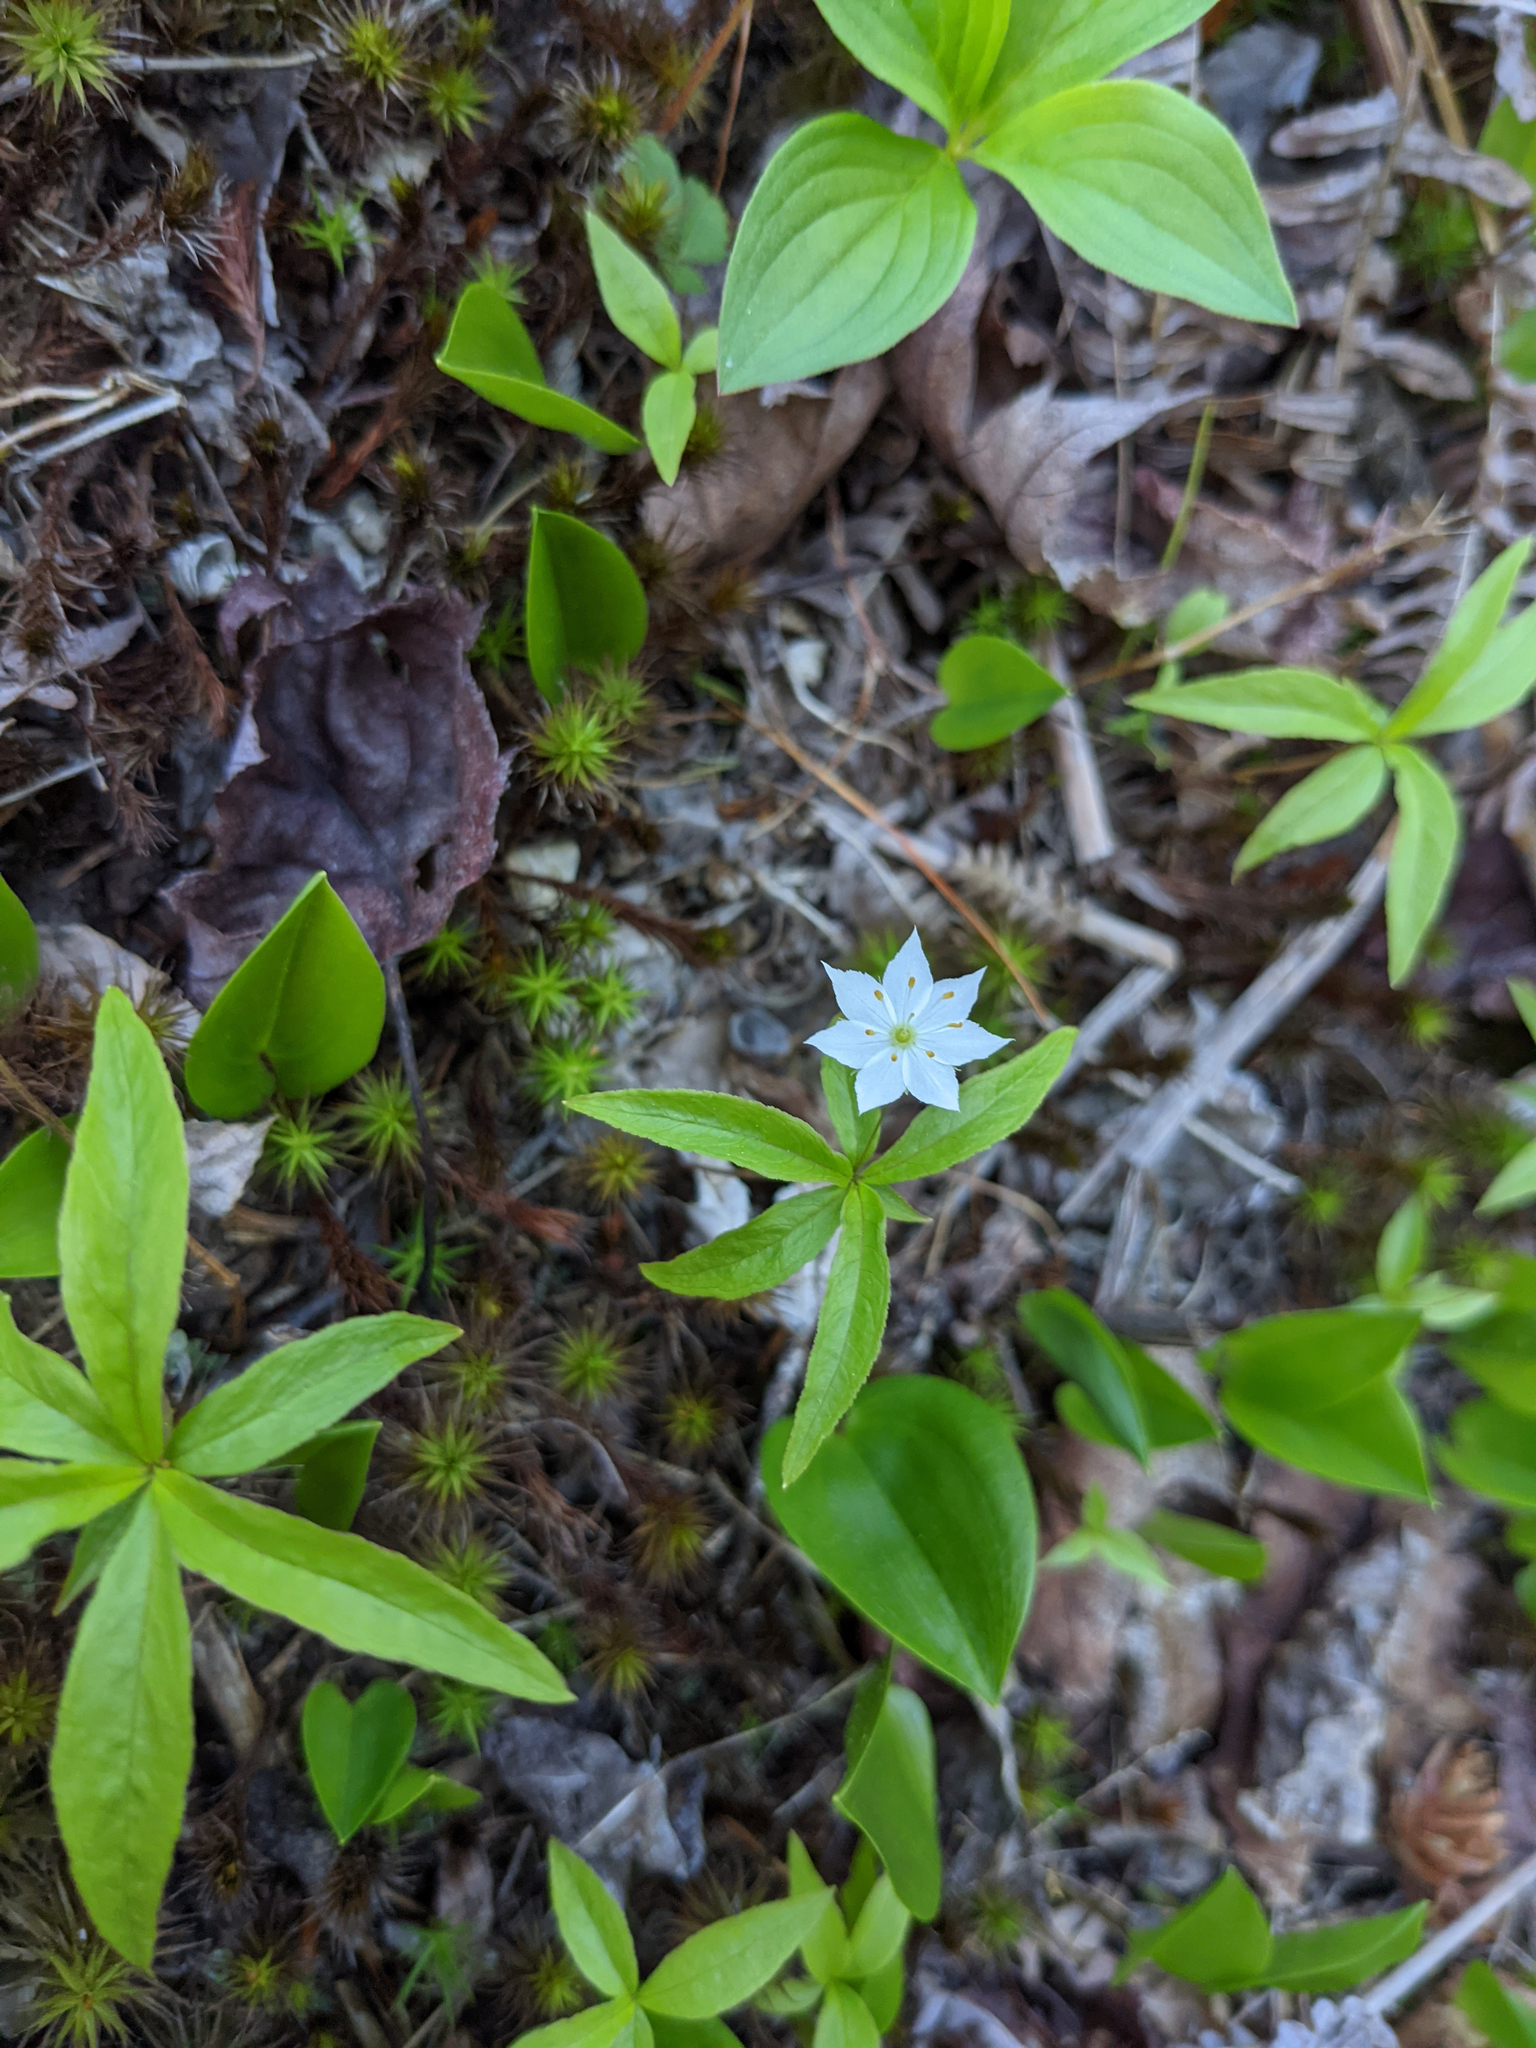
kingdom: Plantae
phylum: Tracheophyta
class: Magnoliopsida
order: Ericales
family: Primulaceae
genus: Lysimachia
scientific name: Lysimachia borealis
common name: American starflower
